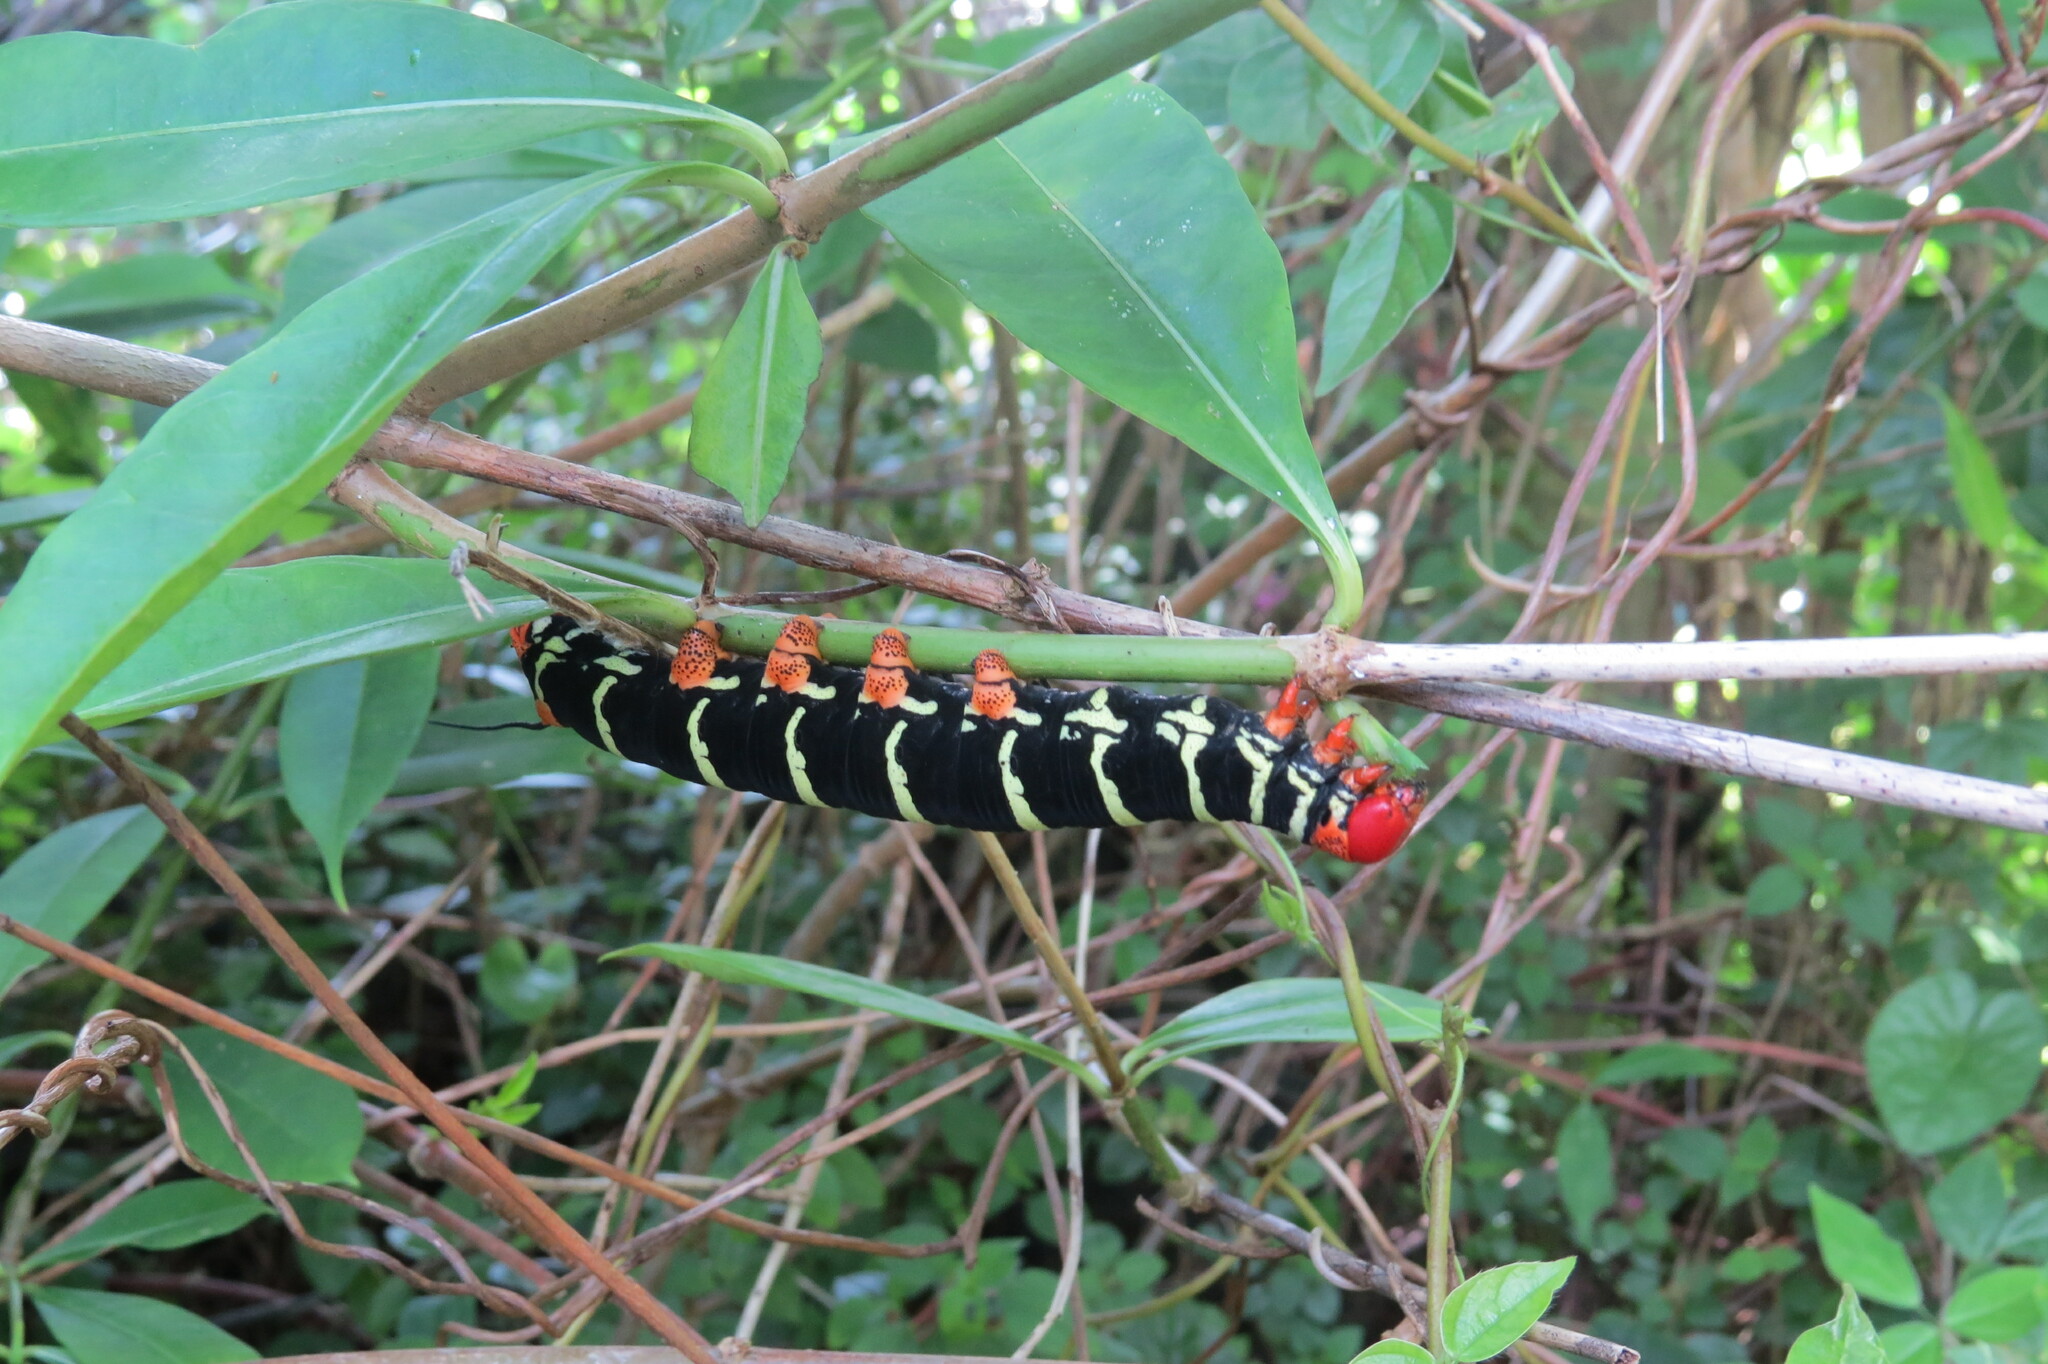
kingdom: Animalia
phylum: Arthropoda
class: Insecta
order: Lepidoptera
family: Sphingidae
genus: Pseudosphinx
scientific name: Pseudosphinx tetrio
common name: Tetrio sphinx
